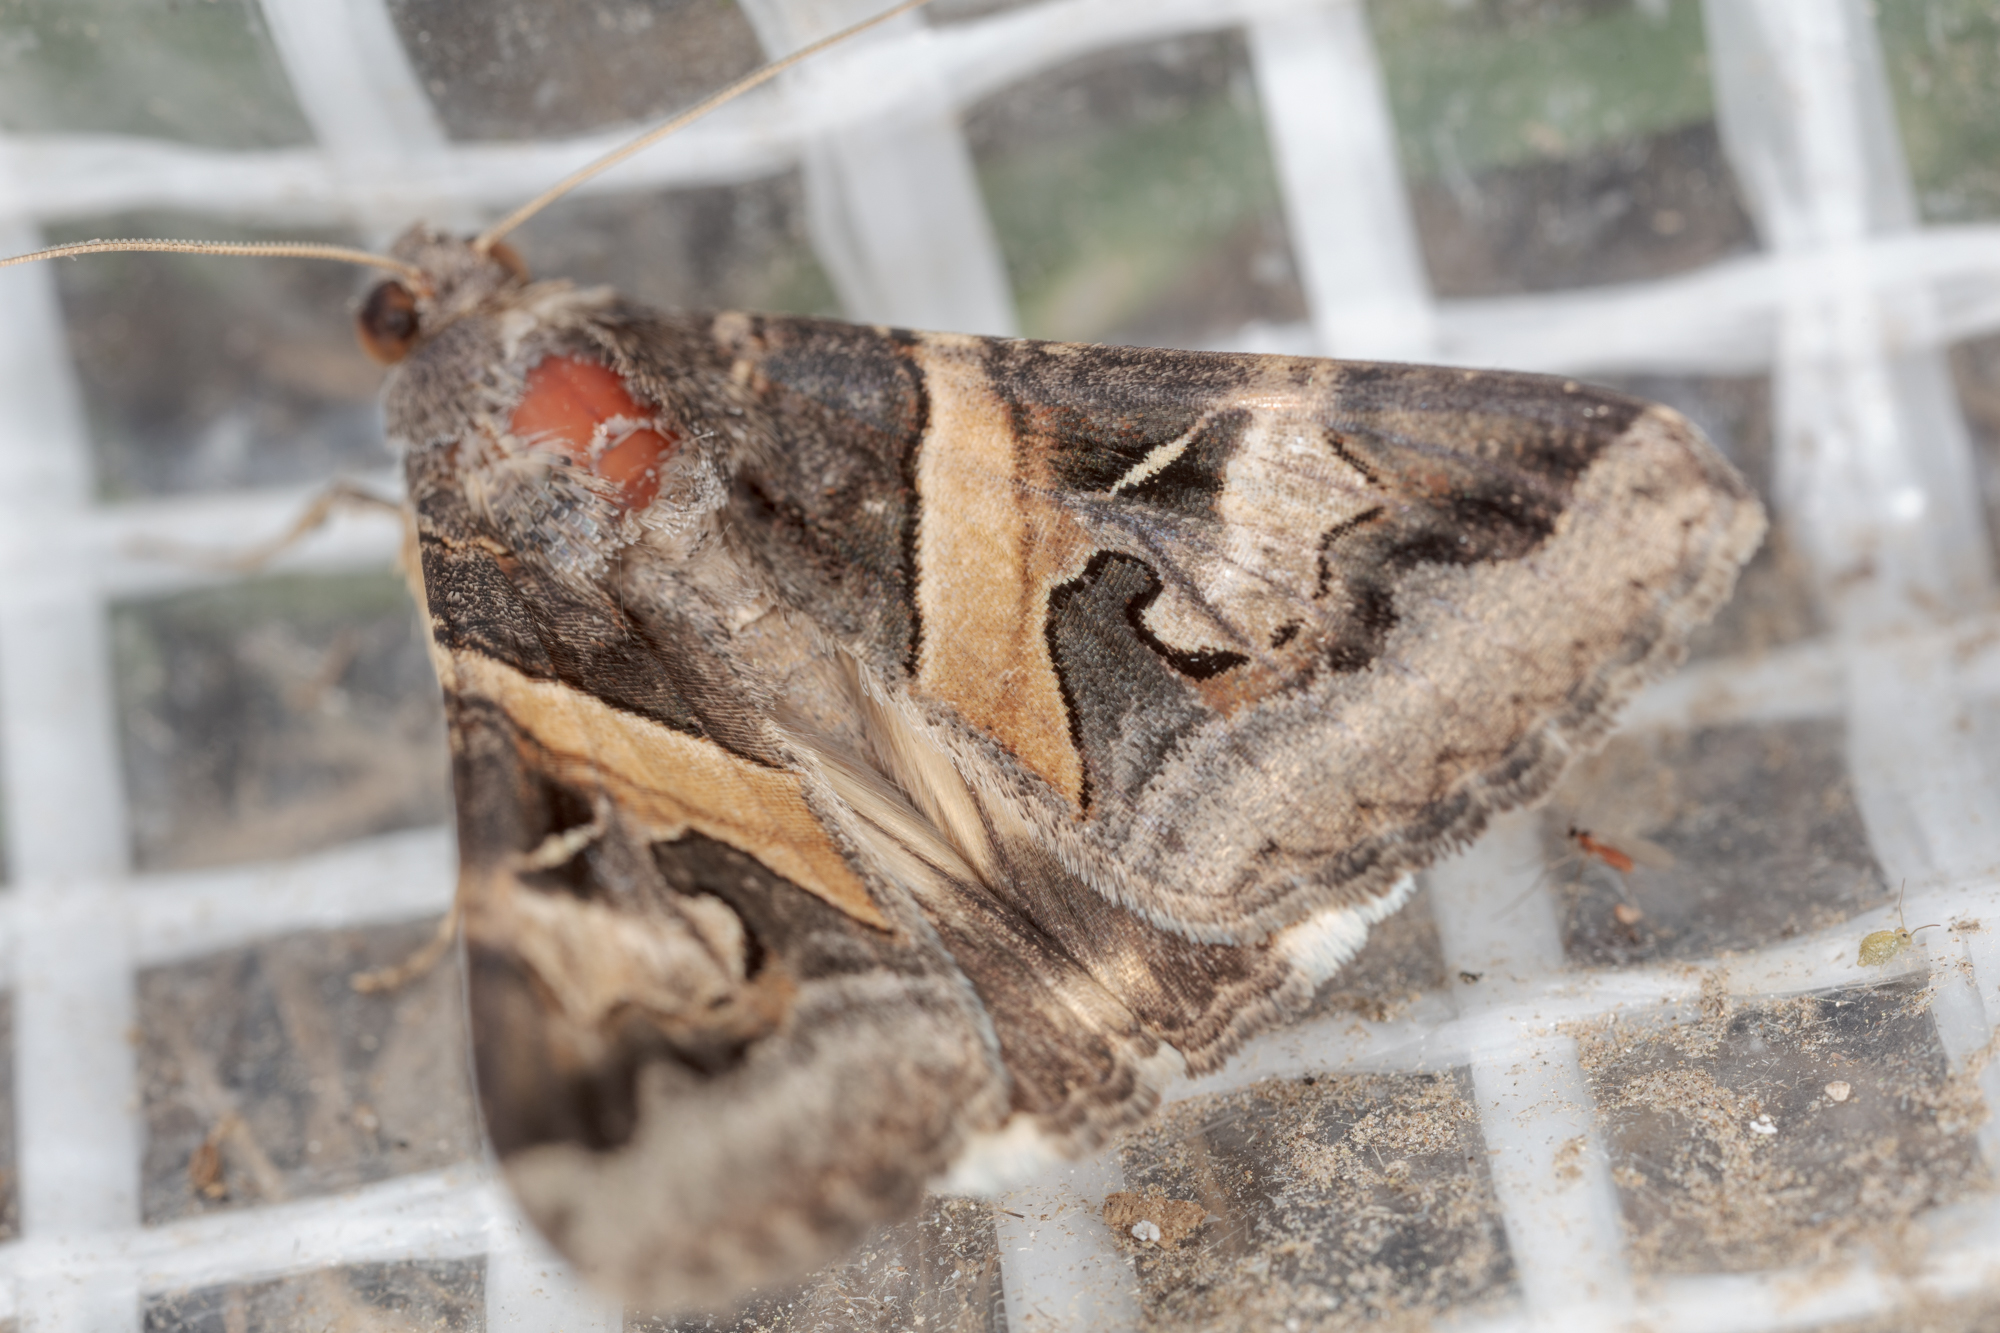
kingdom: Animalia
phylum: Arthropoda
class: Insecta
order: Lepidoptera
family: Erebidae
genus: Melipotis
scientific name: Melipotis indomita
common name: Moth
